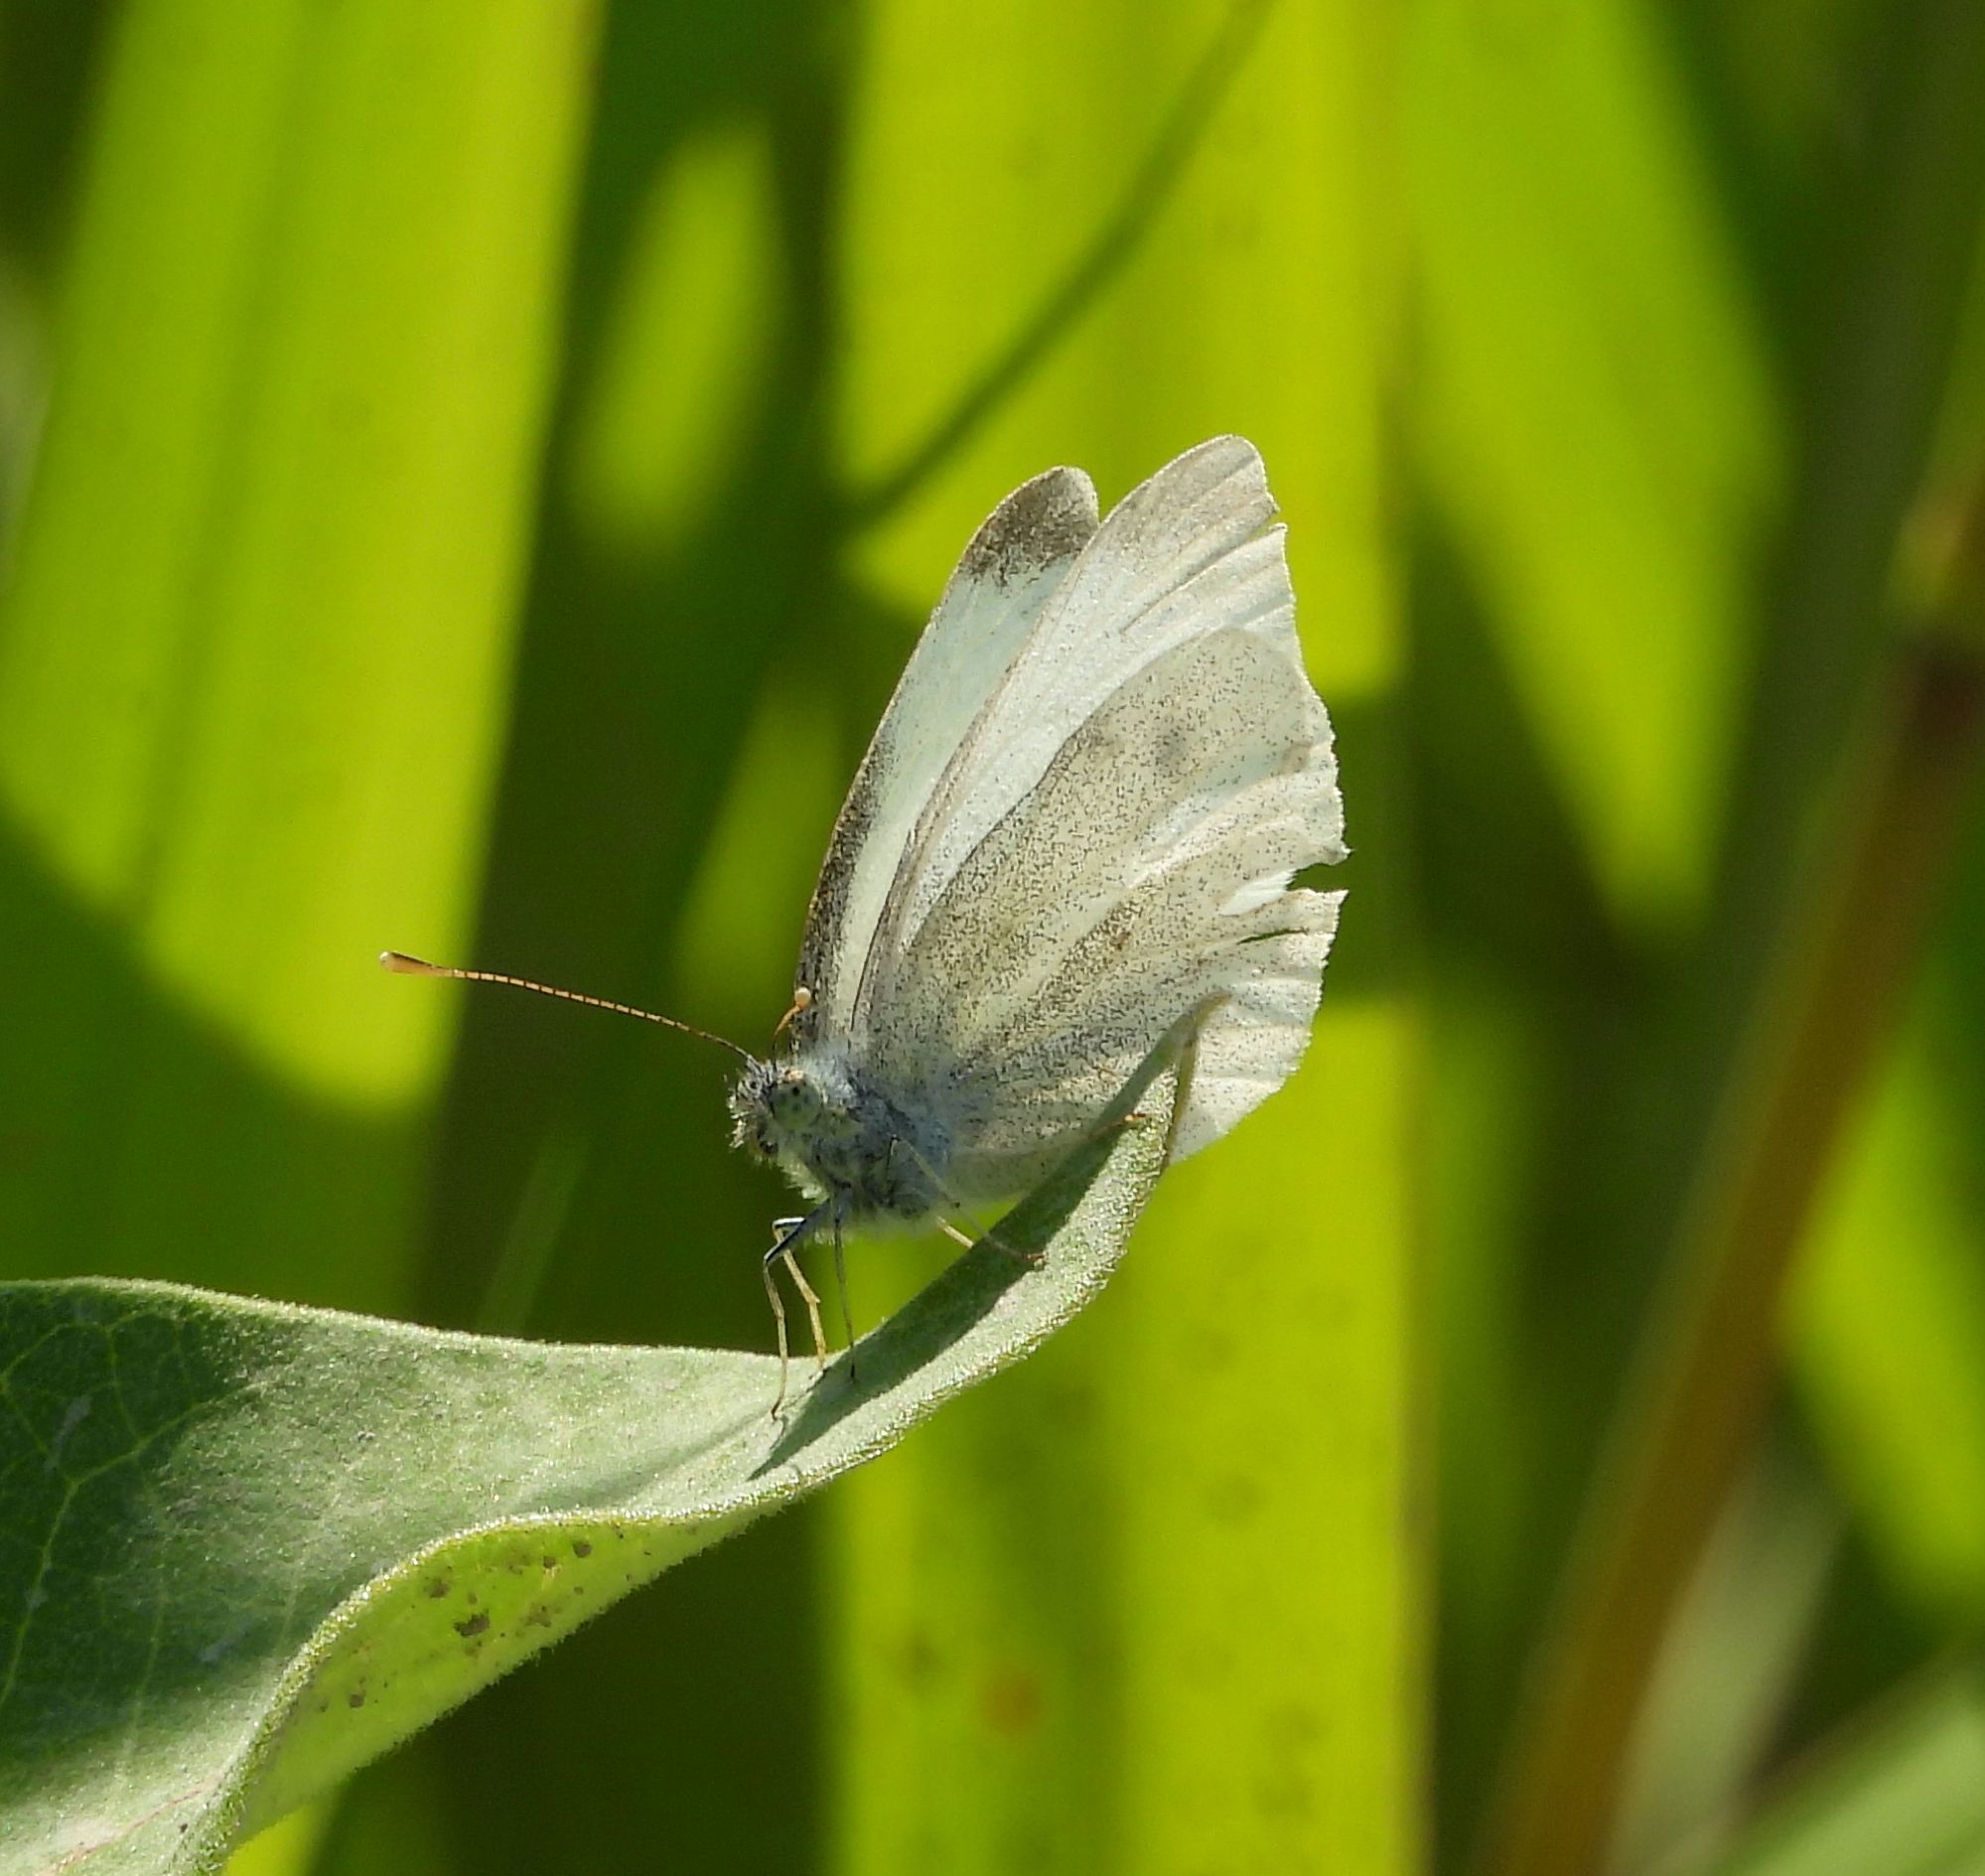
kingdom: Animalia
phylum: Arthropoda
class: Insecta
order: Lepidoptera
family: Pieridae
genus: Pieris
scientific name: Pieris rapae
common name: Small white
